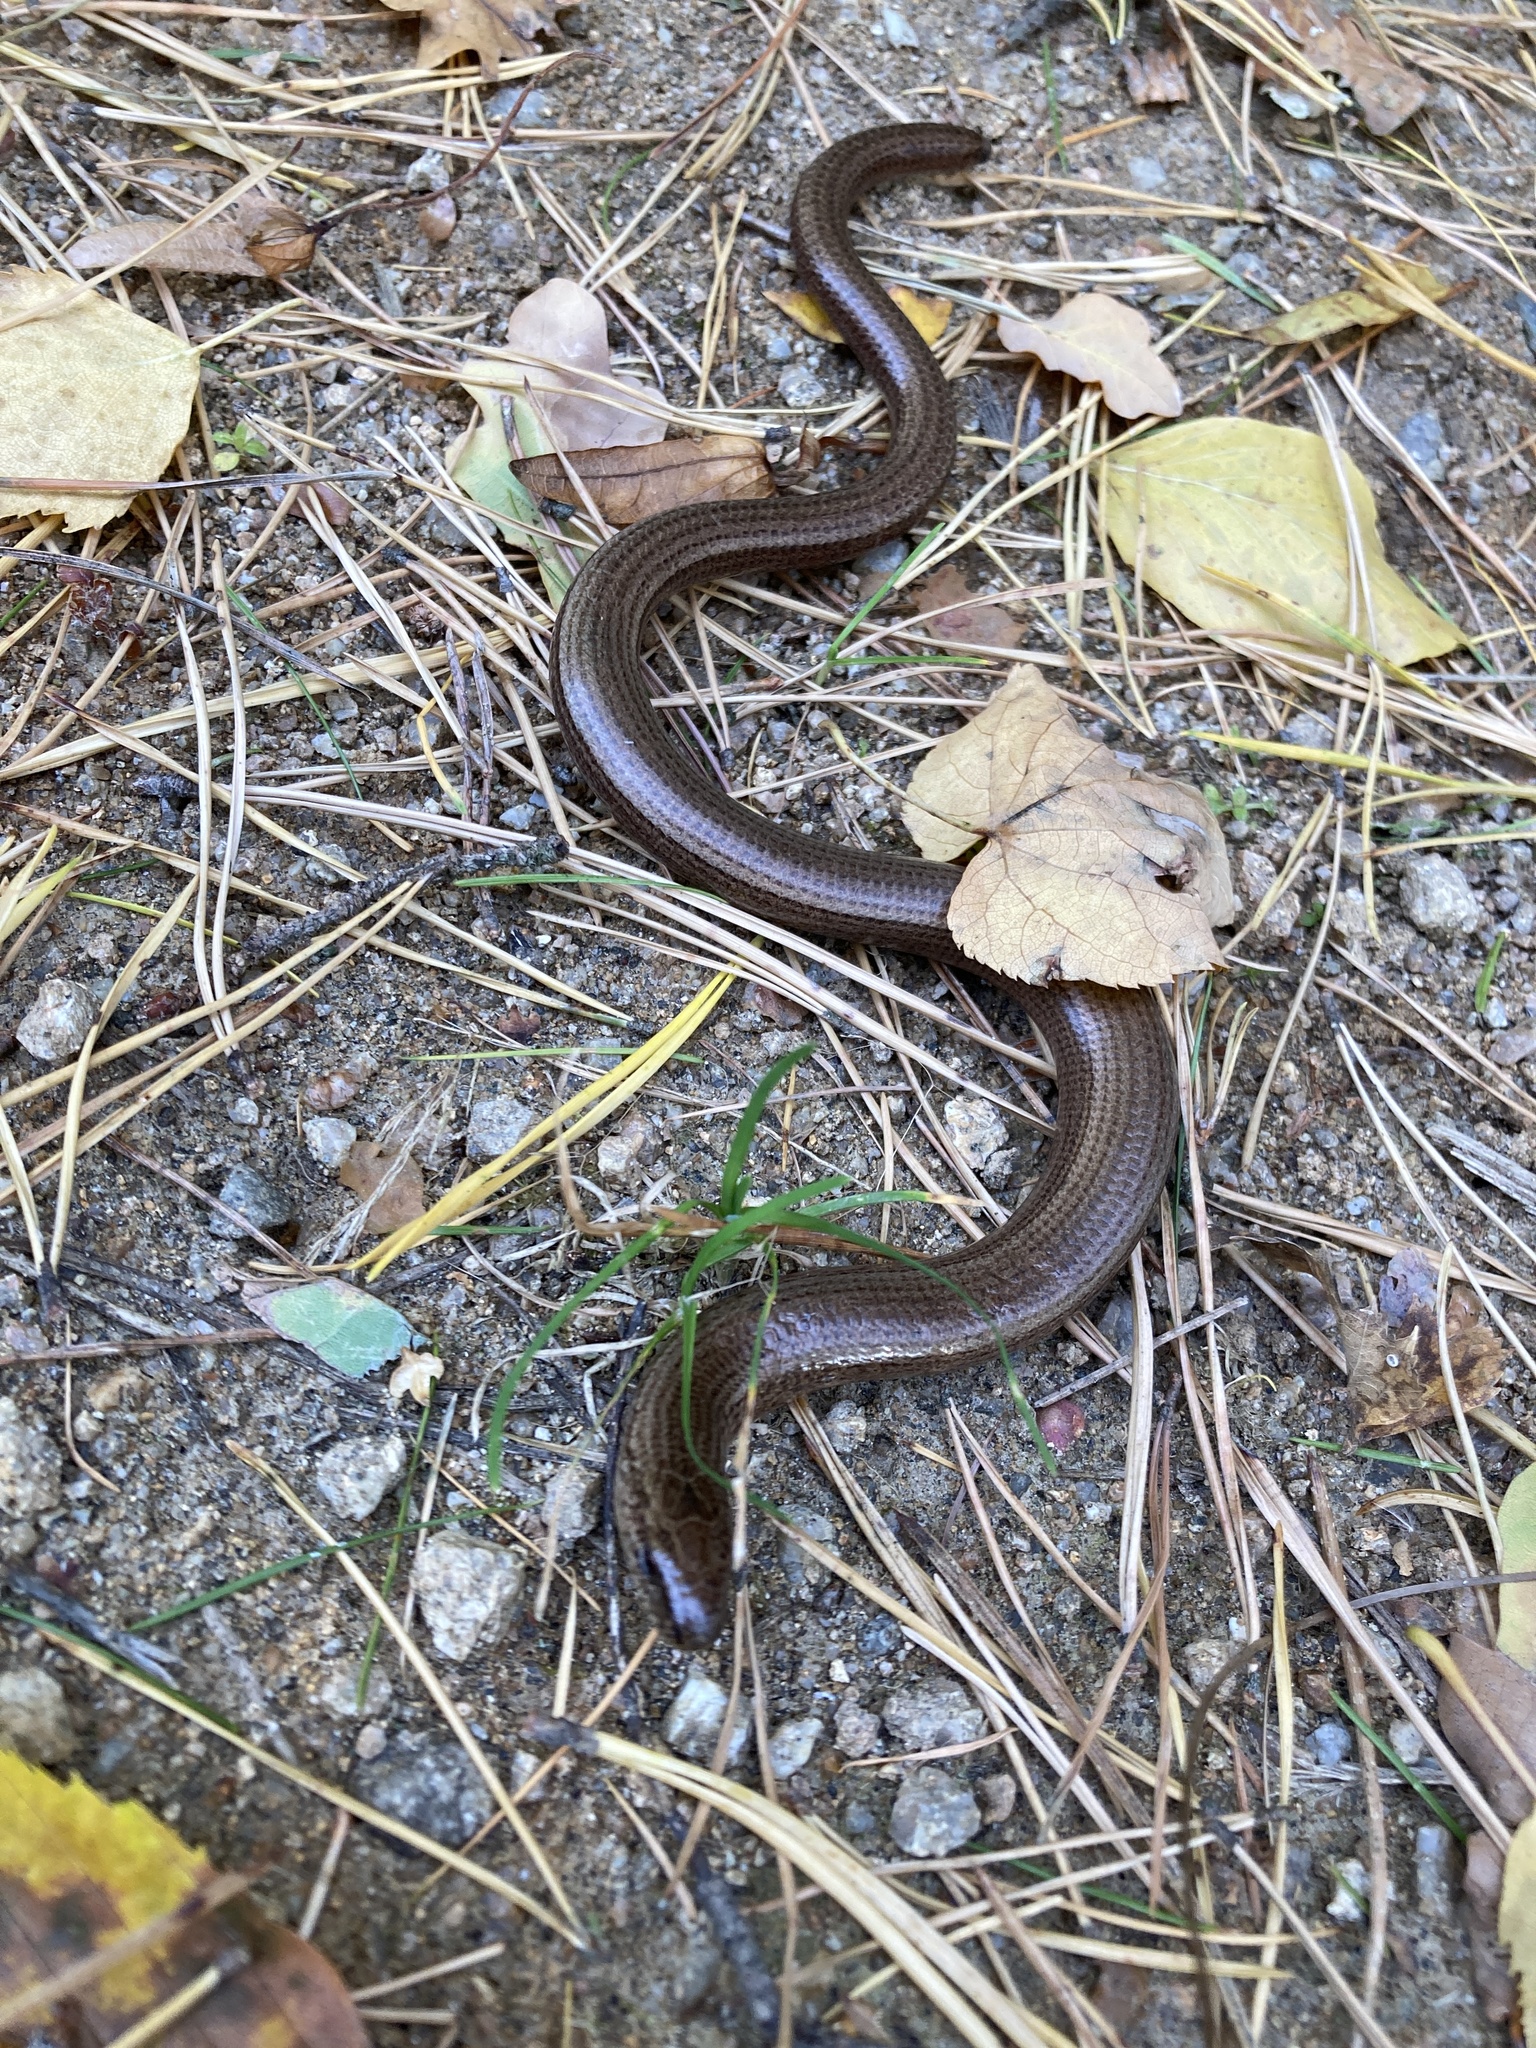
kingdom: Animalia
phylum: Chordata
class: Squamata
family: Anguidae
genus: Anguis
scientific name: Anguis fragilis
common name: Slow worm
